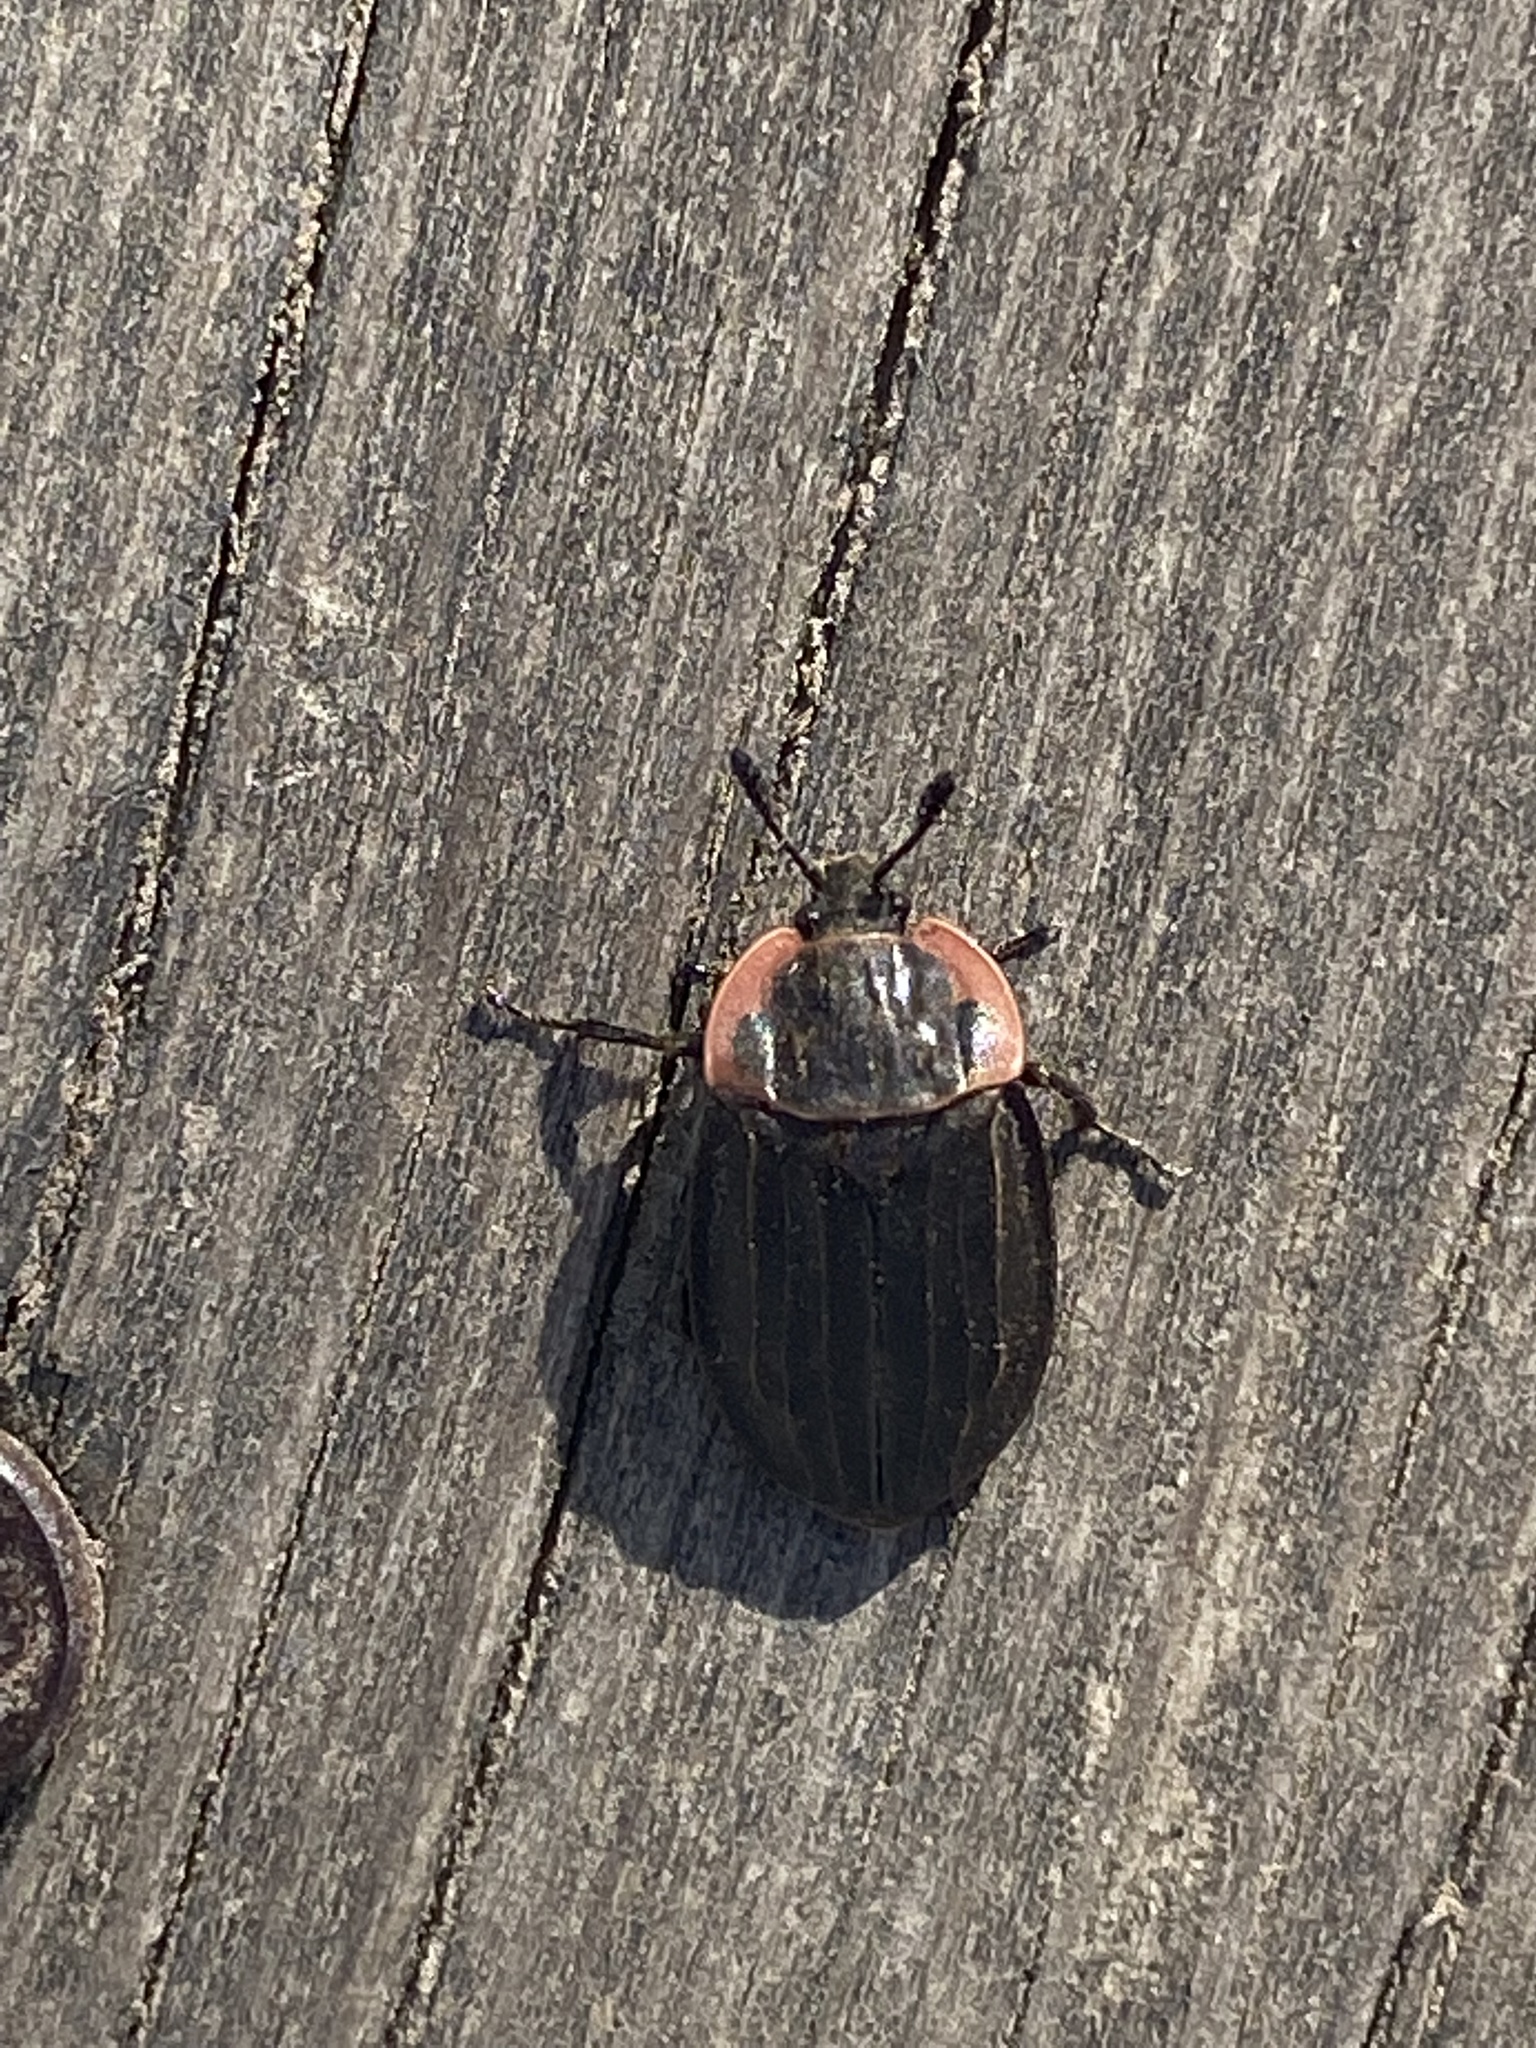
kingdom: Animalia
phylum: Arthropoda
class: Insecta
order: Coleoptera
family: Staphylinidae
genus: Oiceoptoma
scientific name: Oiceoptoma noveboracense
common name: Margined carrion beetle
